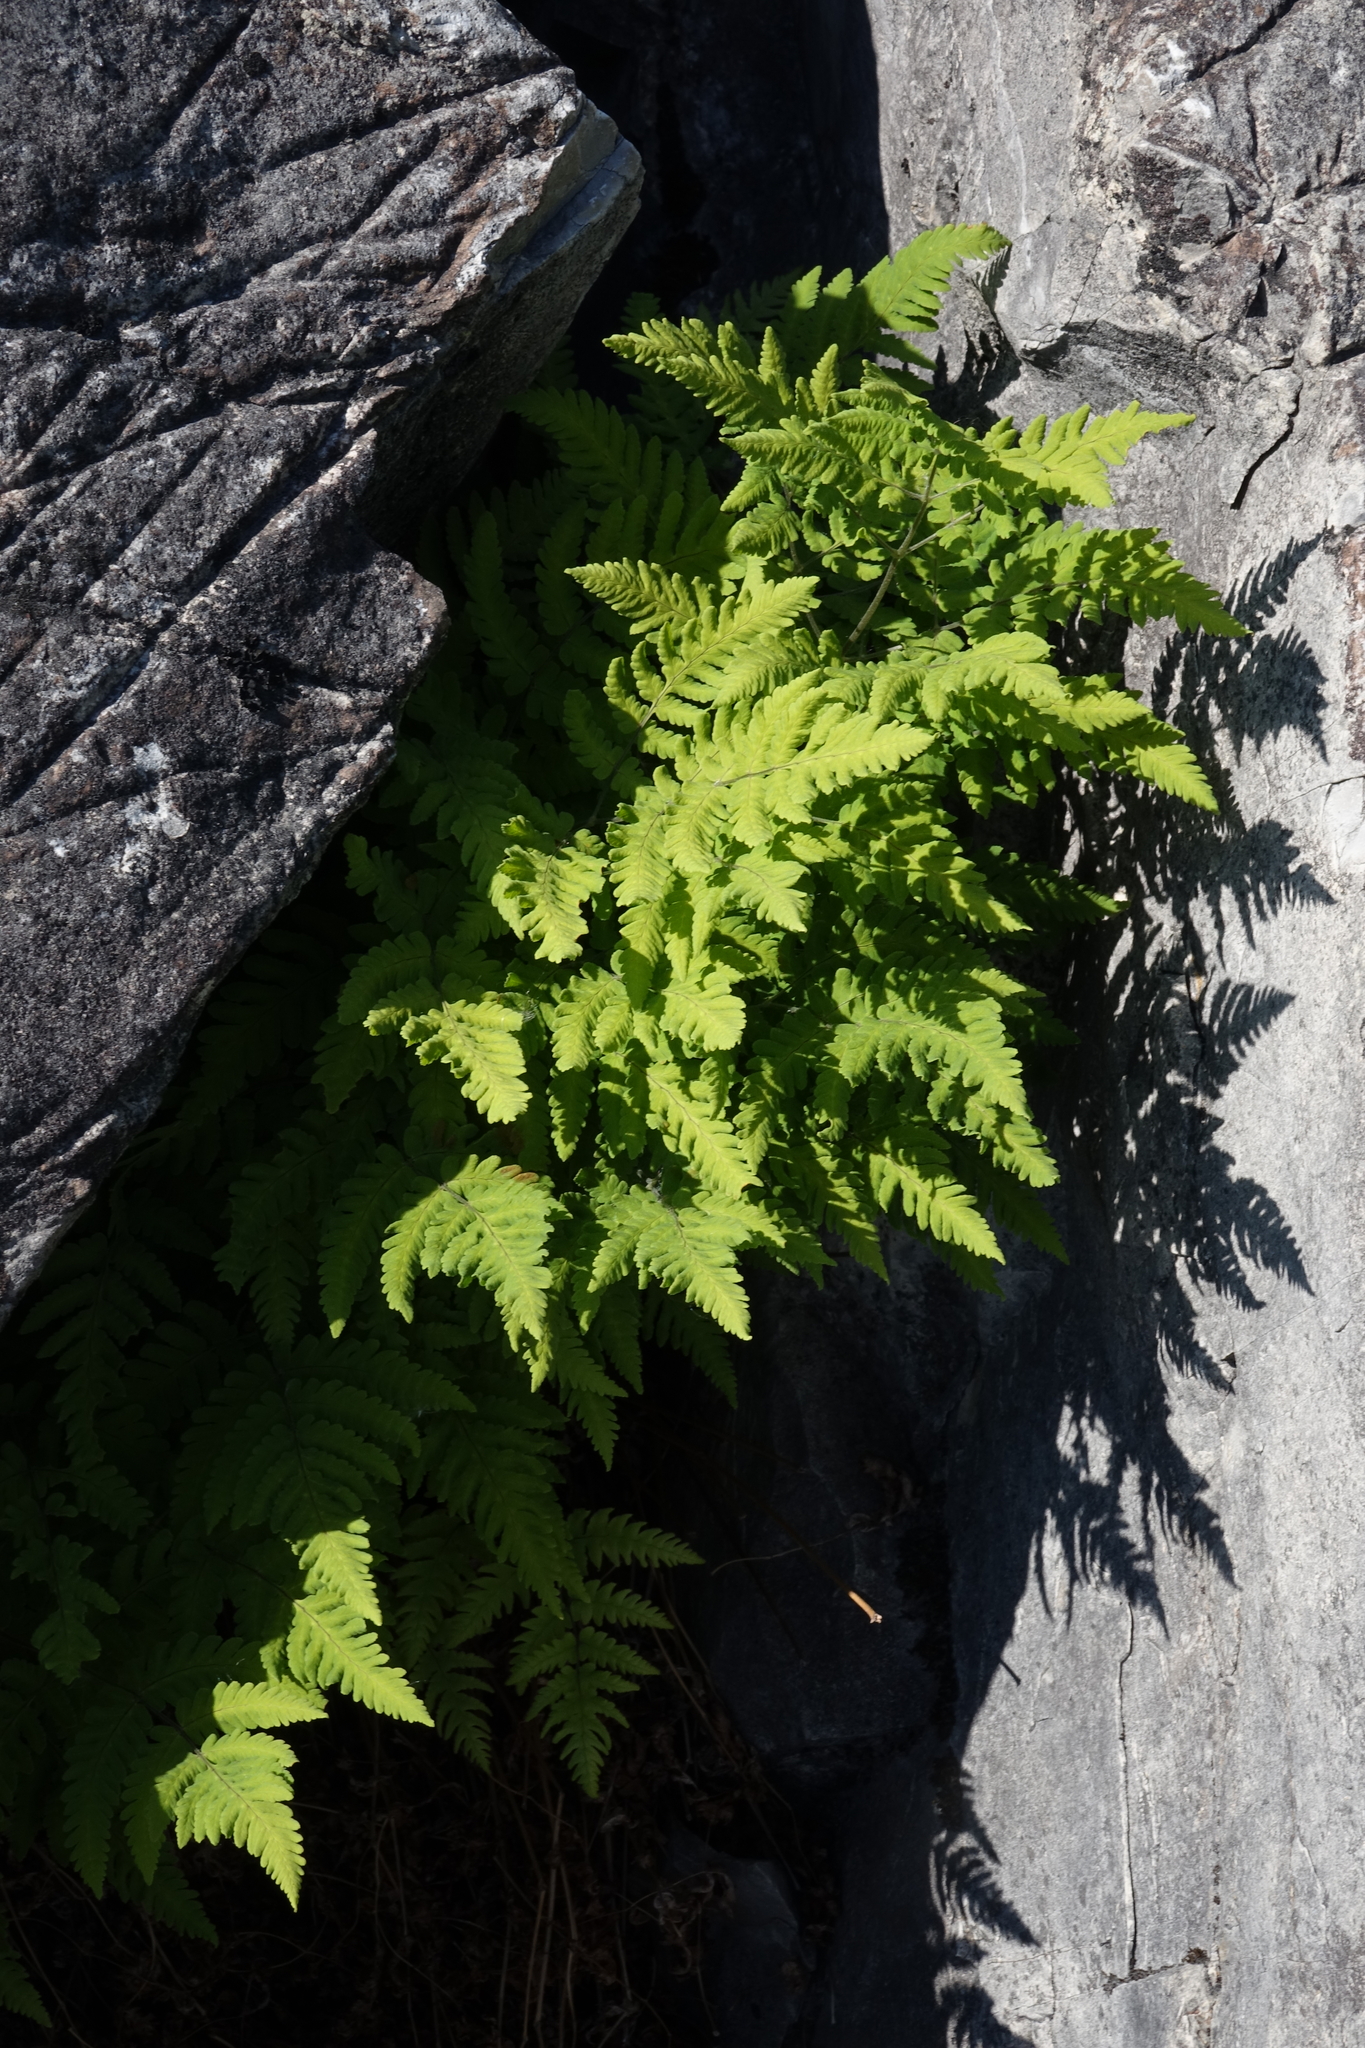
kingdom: Plantae
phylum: Tracheophyta
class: Polypodiopsida
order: Polypodiales
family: Cystopteridaceae
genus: Gymnocarpium
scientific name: Gymnocarpium jessoense
